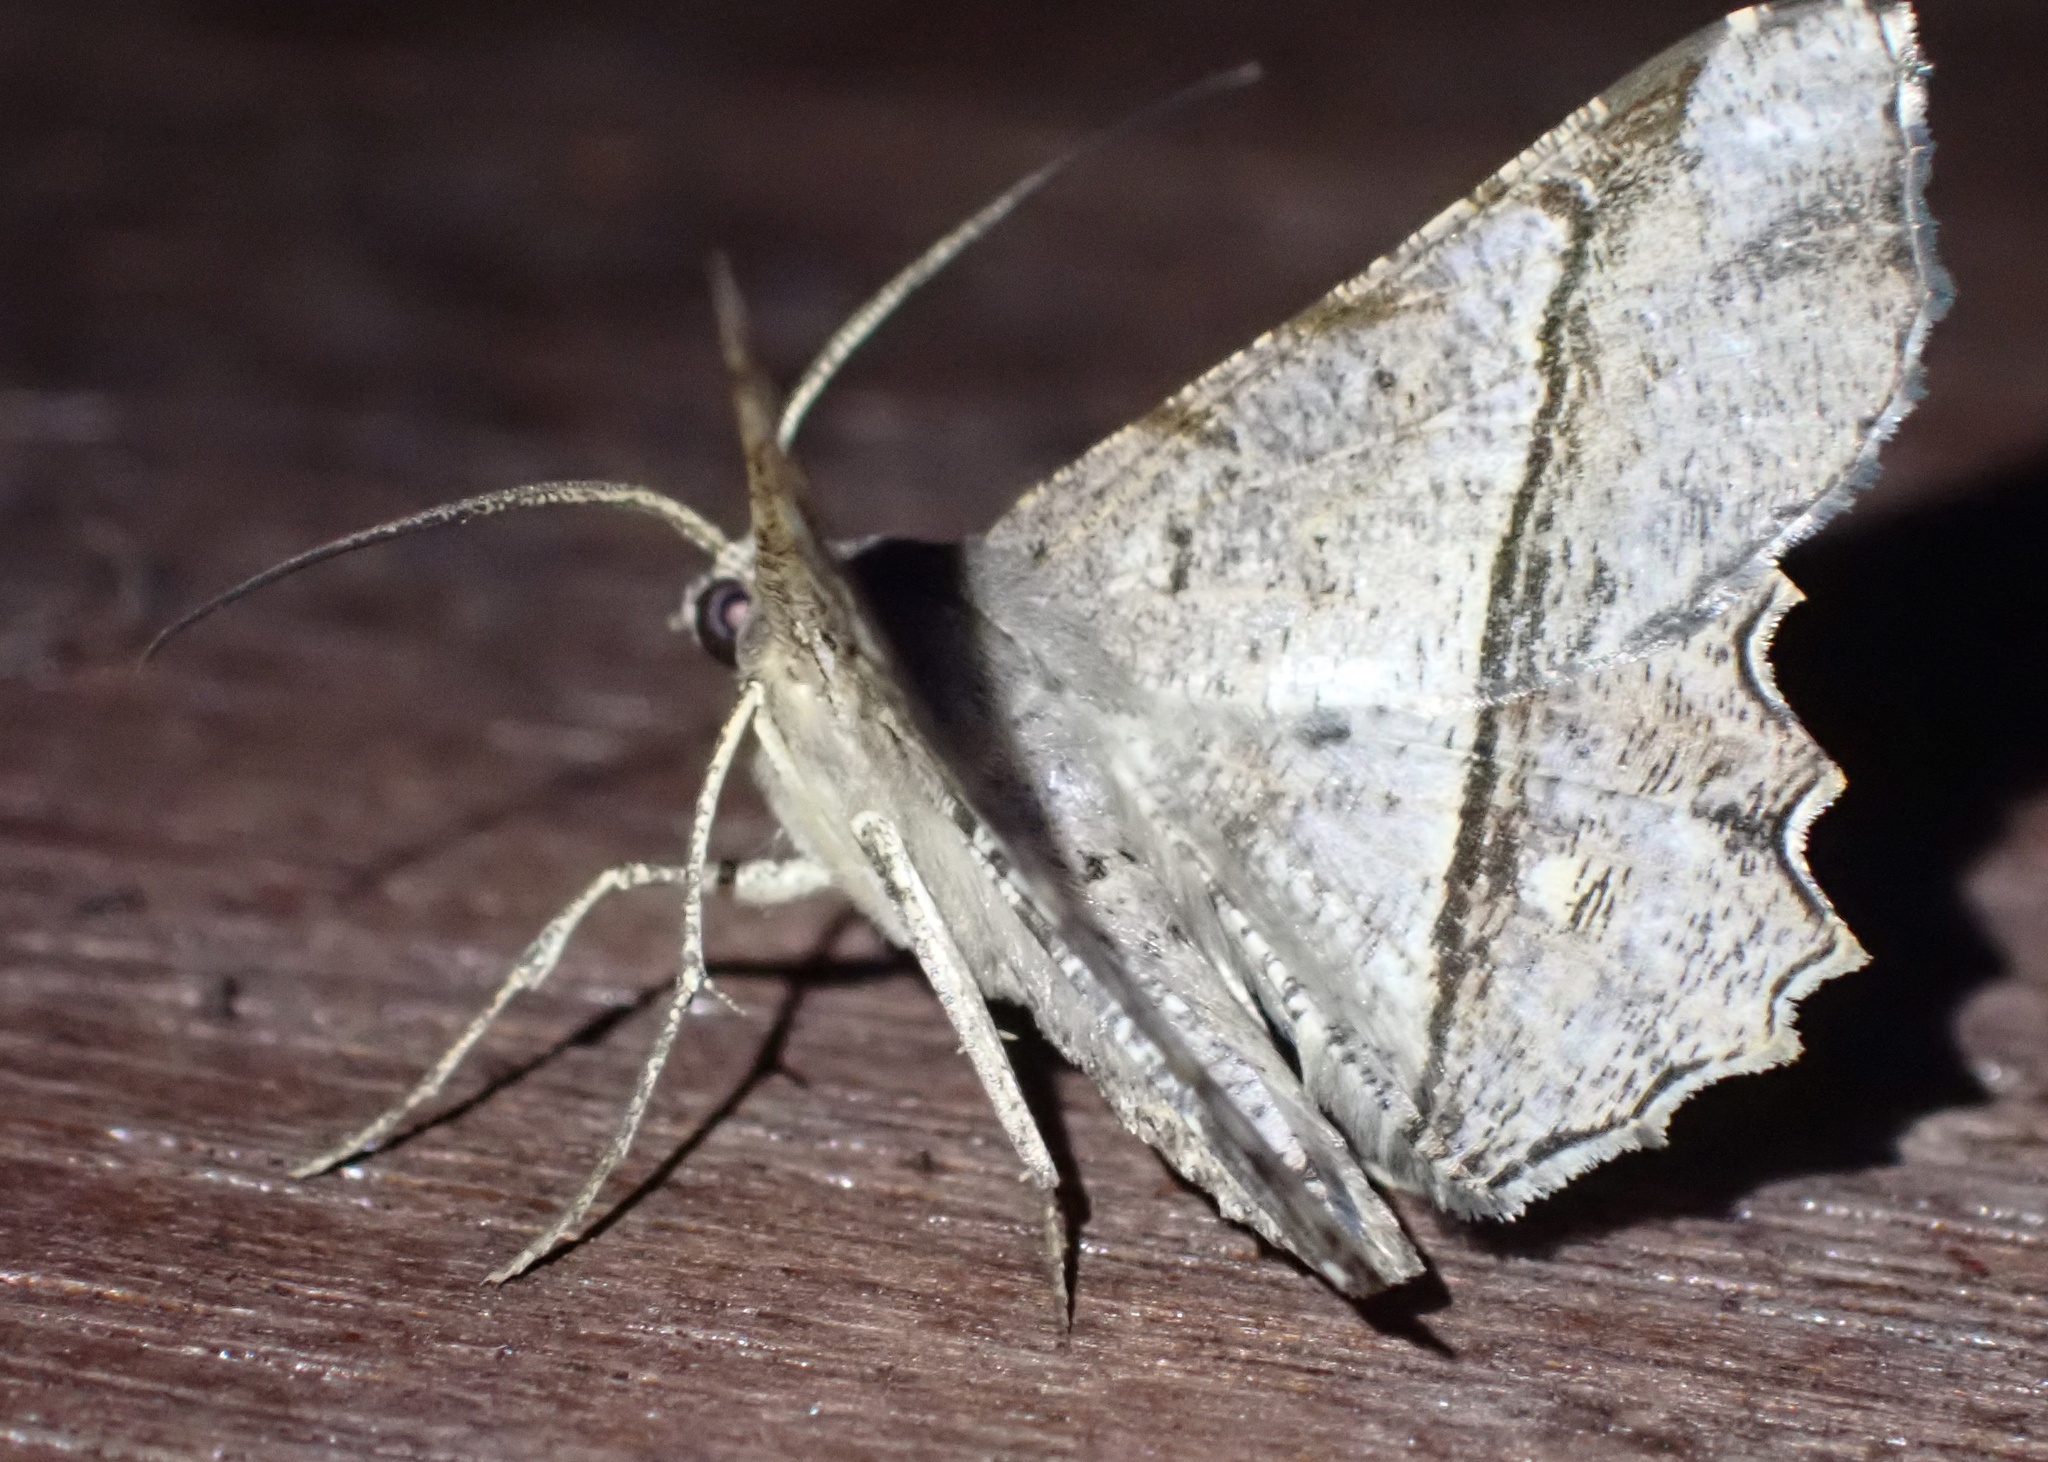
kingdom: Animalia
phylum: Arthropoda
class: Insecta
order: Lepidoptera
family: Geometridae
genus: Chiasmia
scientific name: Chiasmia avitusaria
